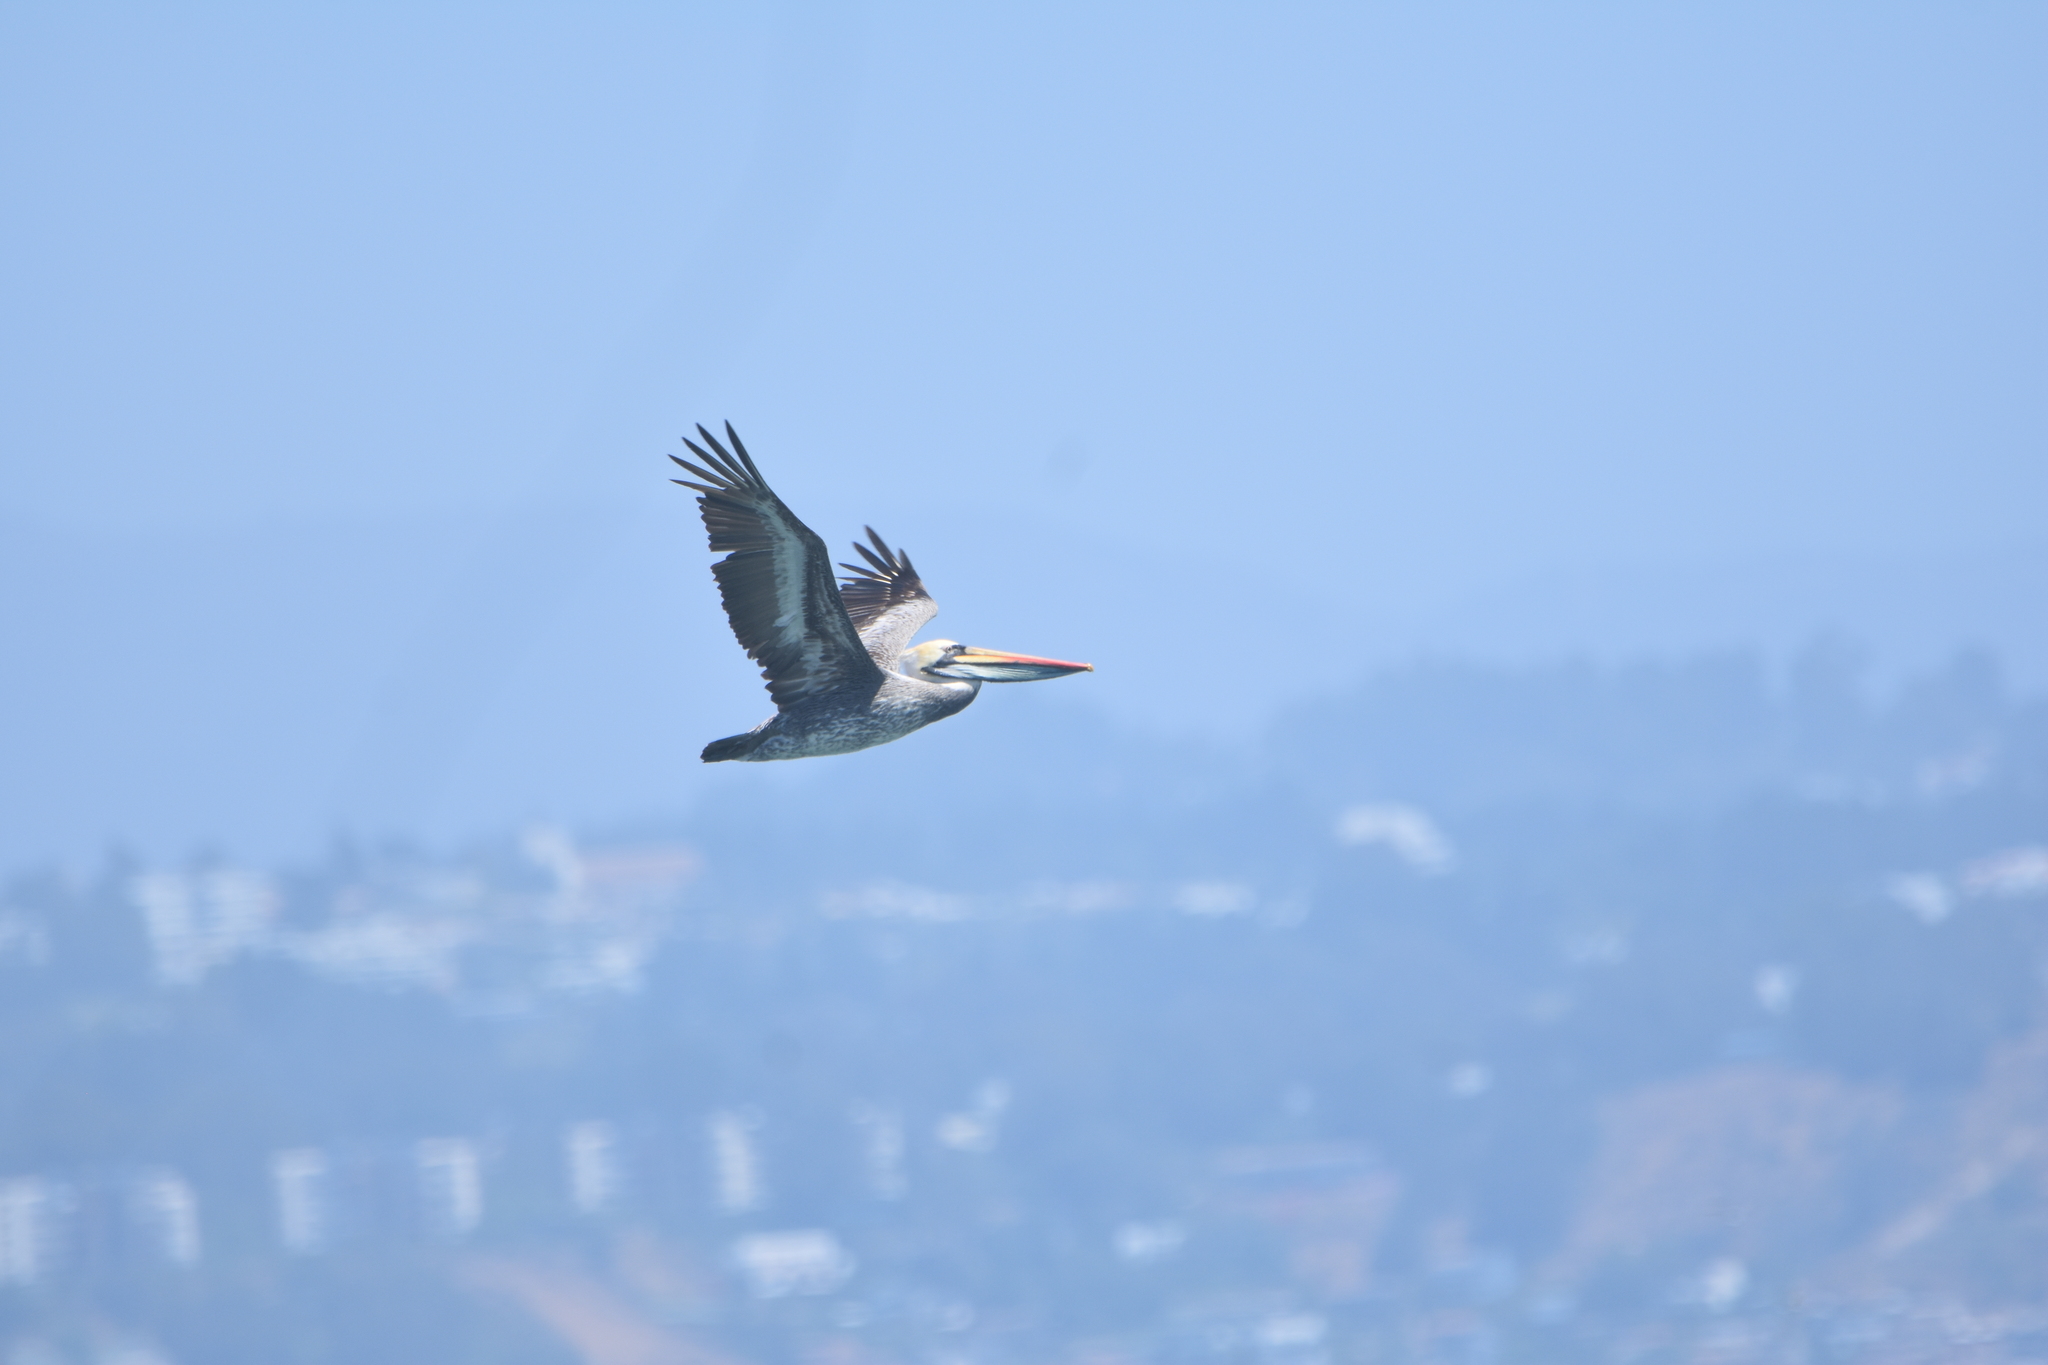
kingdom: Animalia
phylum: Chordata
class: Aves
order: Pelecaniformes
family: Pelecanidae
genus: Pelecanus
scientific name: Pelecanus thagus
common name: Peruvian pelican
